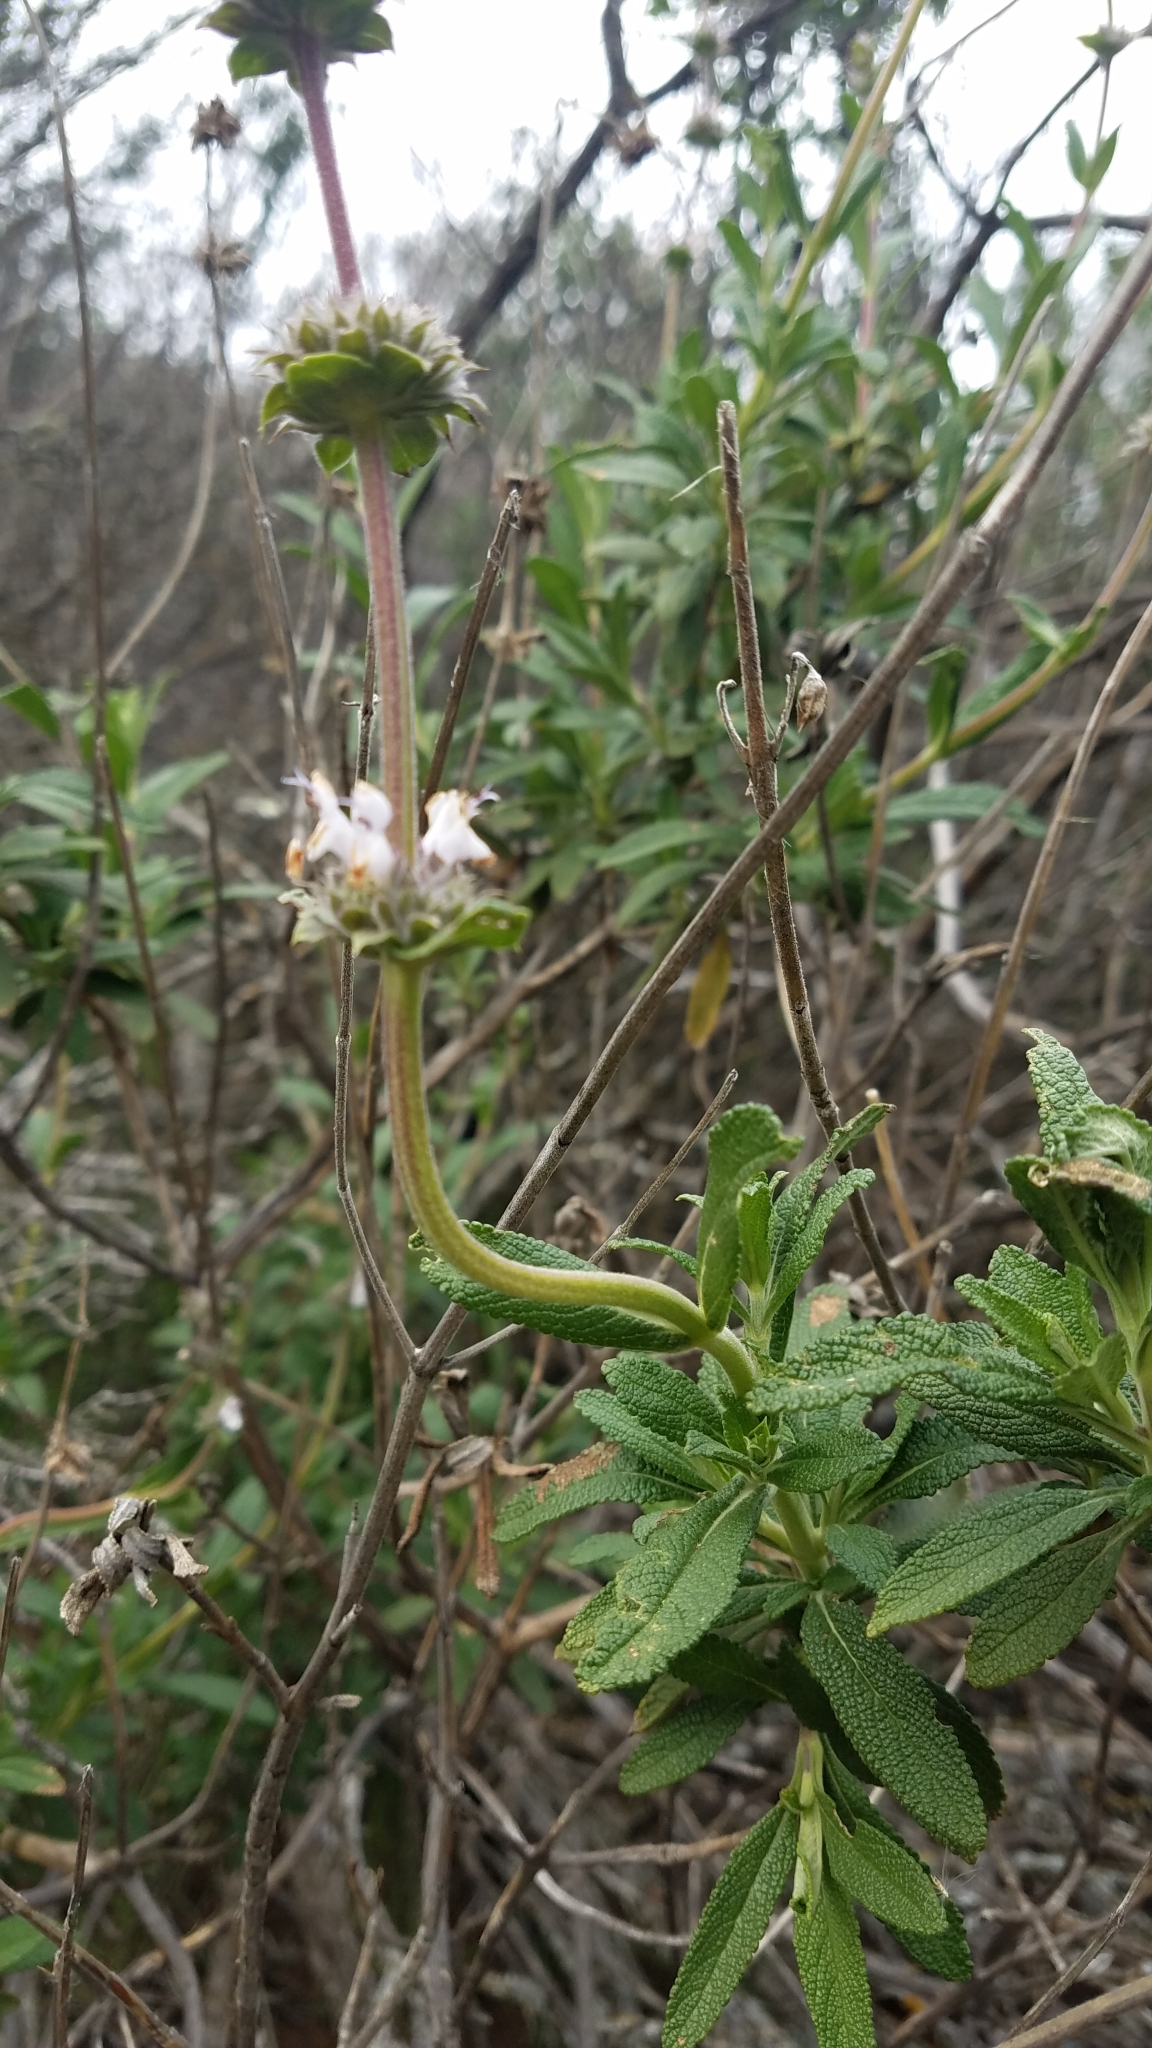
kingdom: Plantae
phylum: Tracheophyta
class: Magnoliopsida
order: Lamiales
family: Lamiaceae
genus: Salvia
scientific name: Salvia mellifera
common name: Black sage
